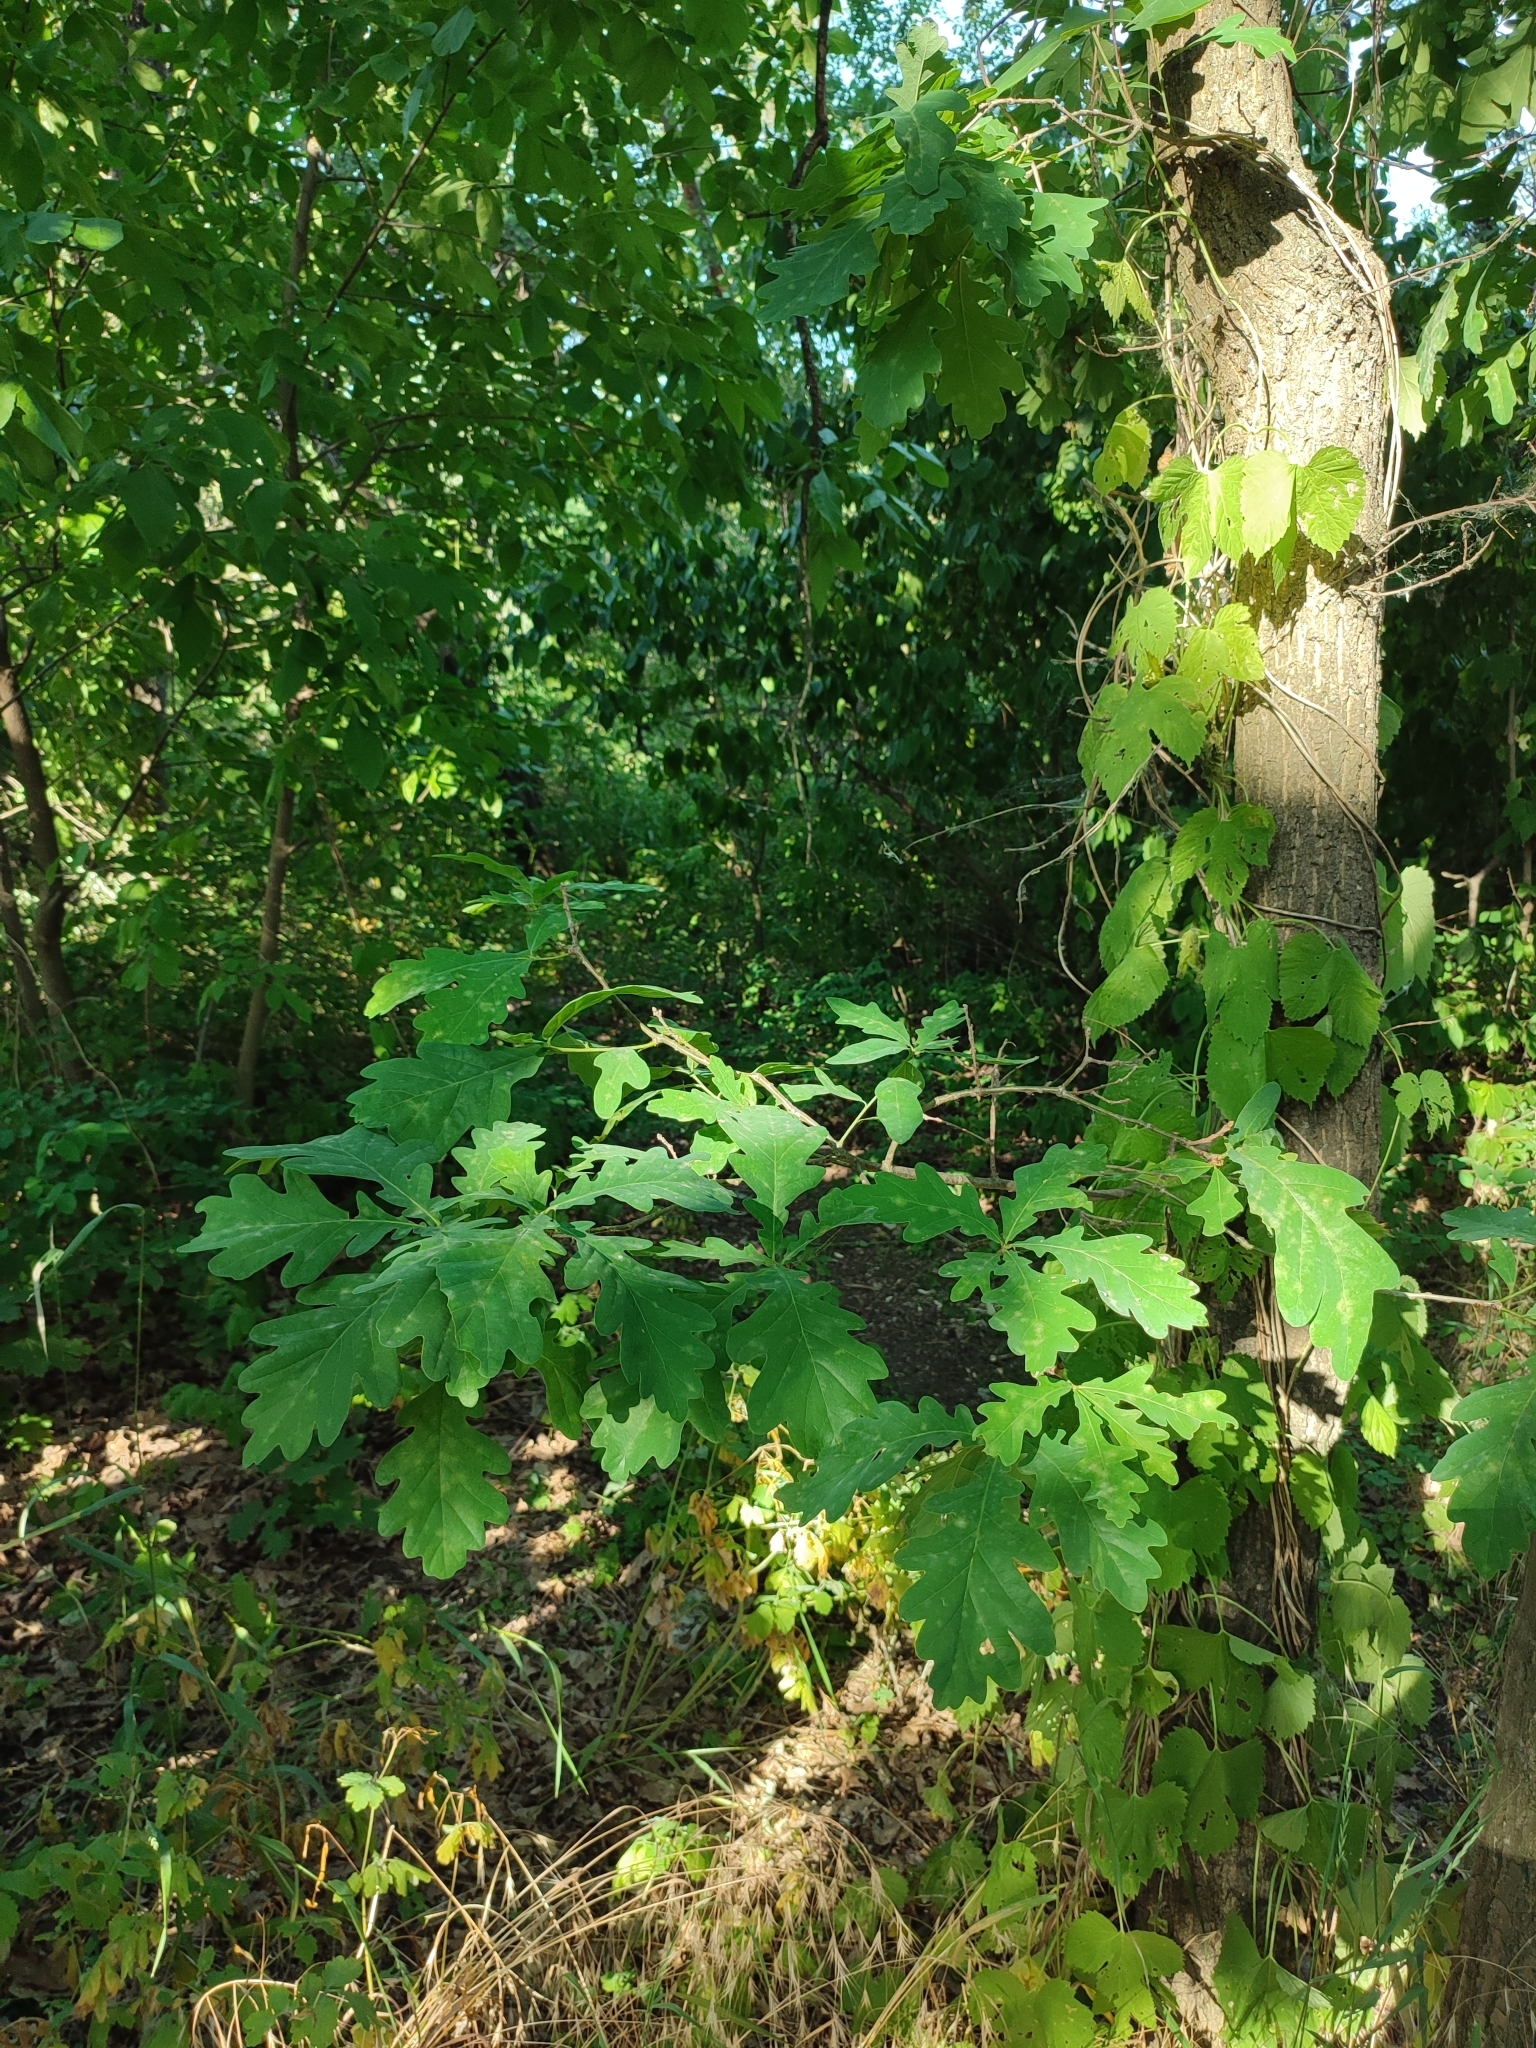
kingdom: Plantae
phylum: Tracheophyta
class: Magnoliopsida
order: Fagales
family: Fagaceae
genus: Quercus
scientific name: Quercus robur
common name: Pedunculate oak
